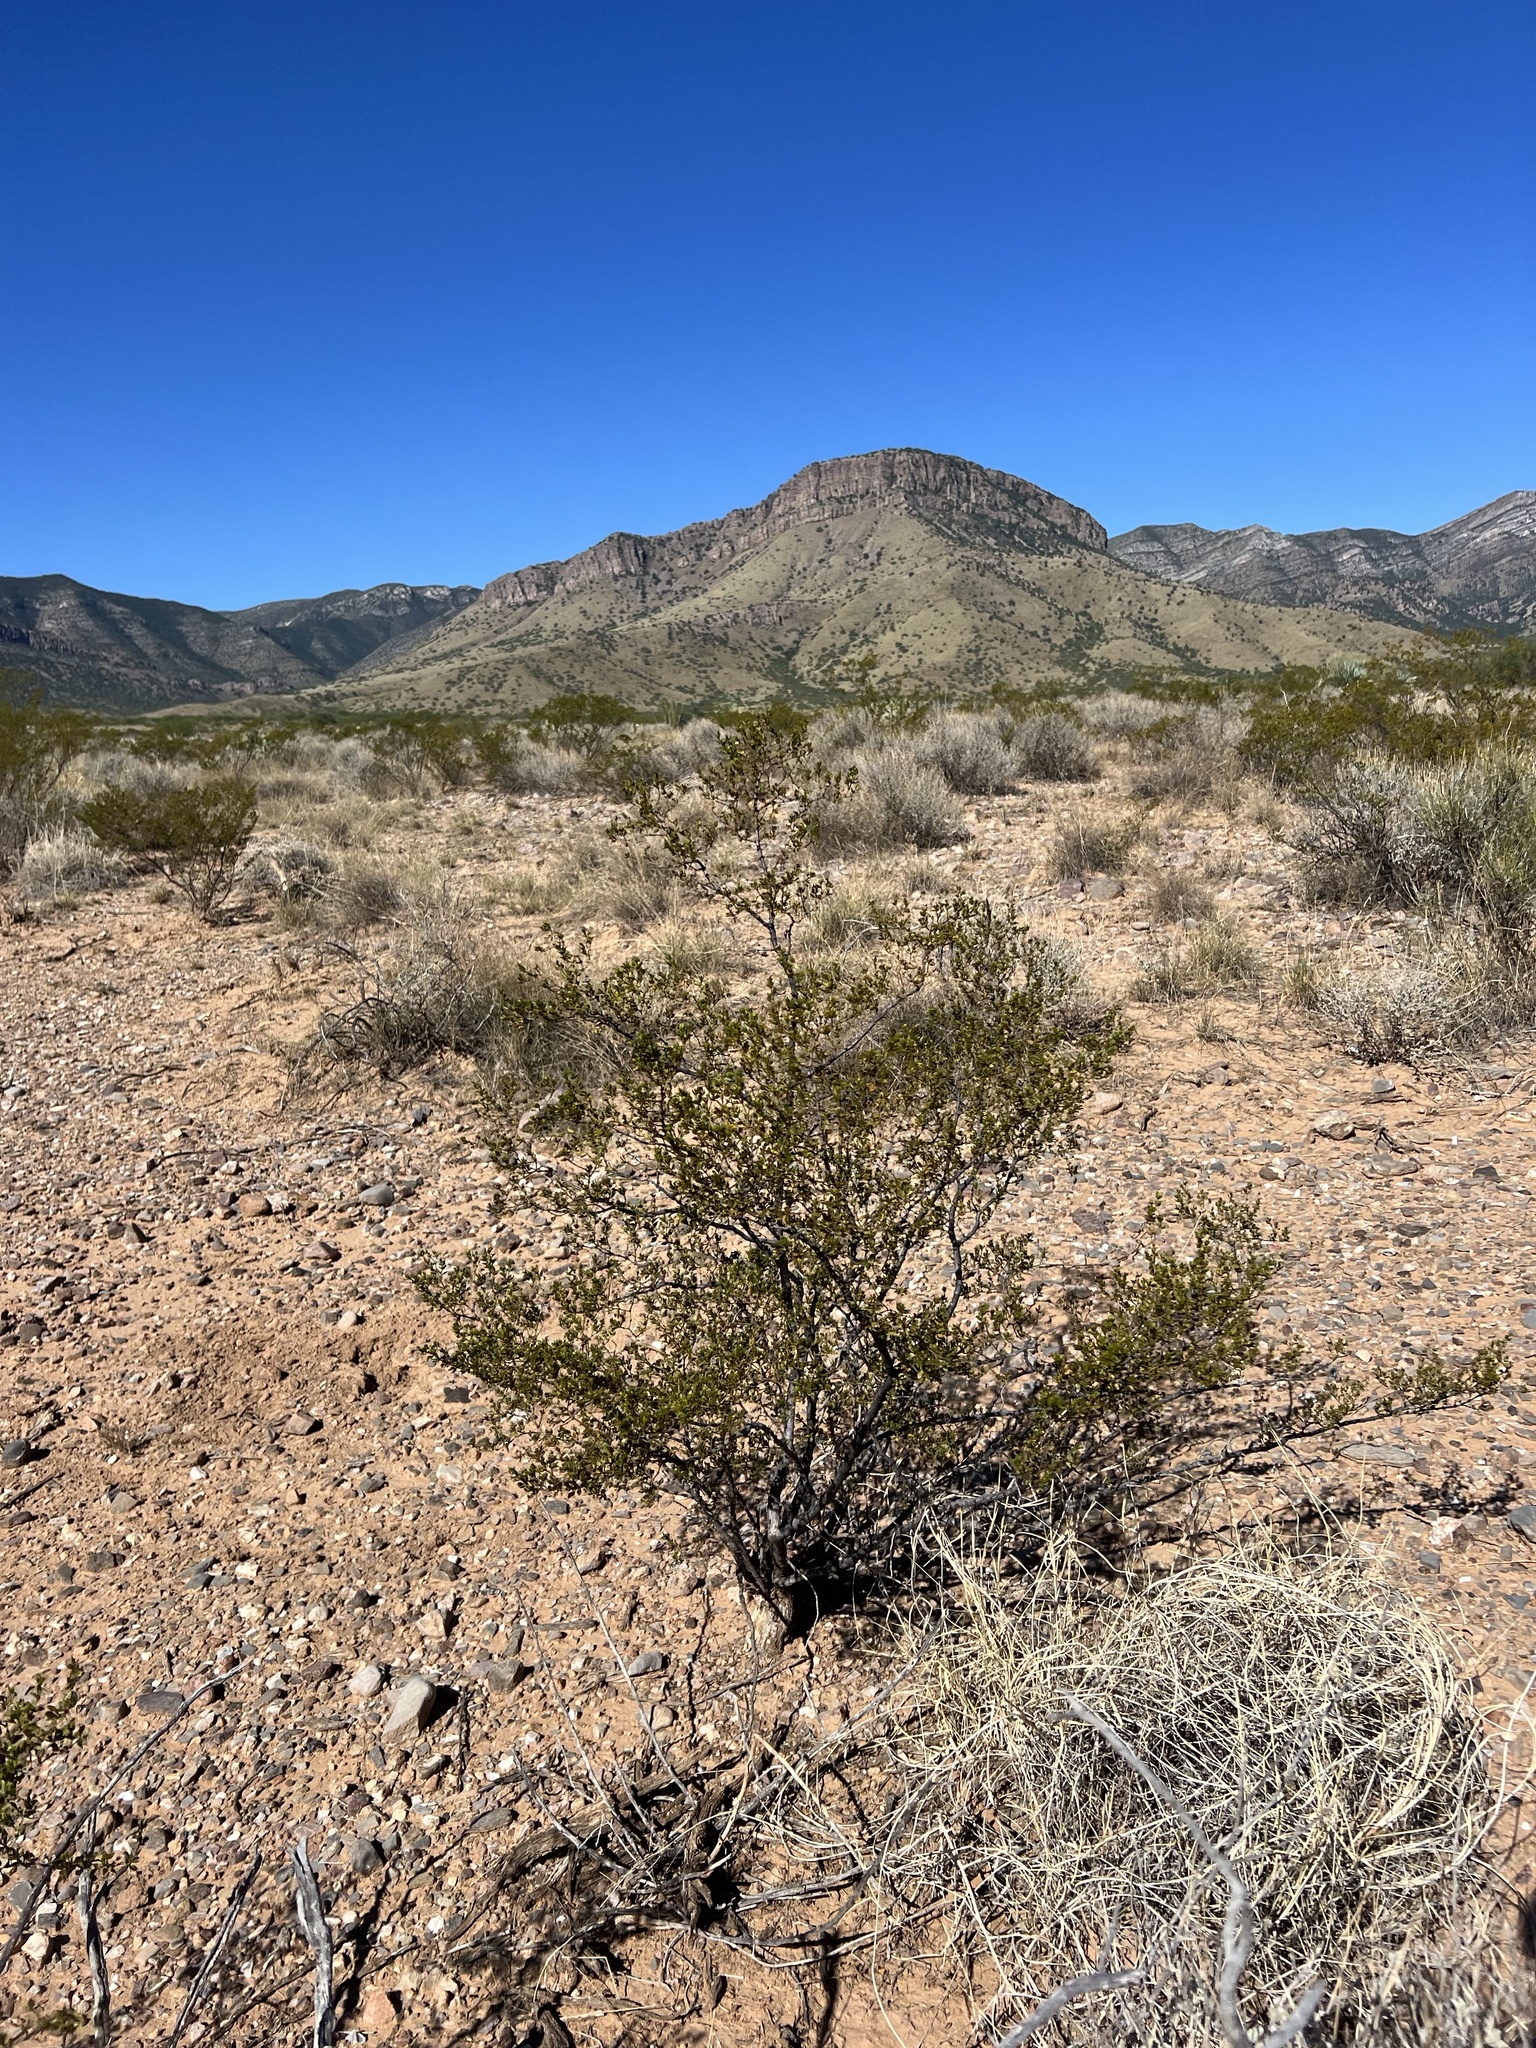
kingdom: Plantae
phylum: Tracheophyta
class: Magnoliopsida
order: Zygophyllales
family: Zygophyllaceae
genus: Larrea
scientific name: Larrea tridentata
